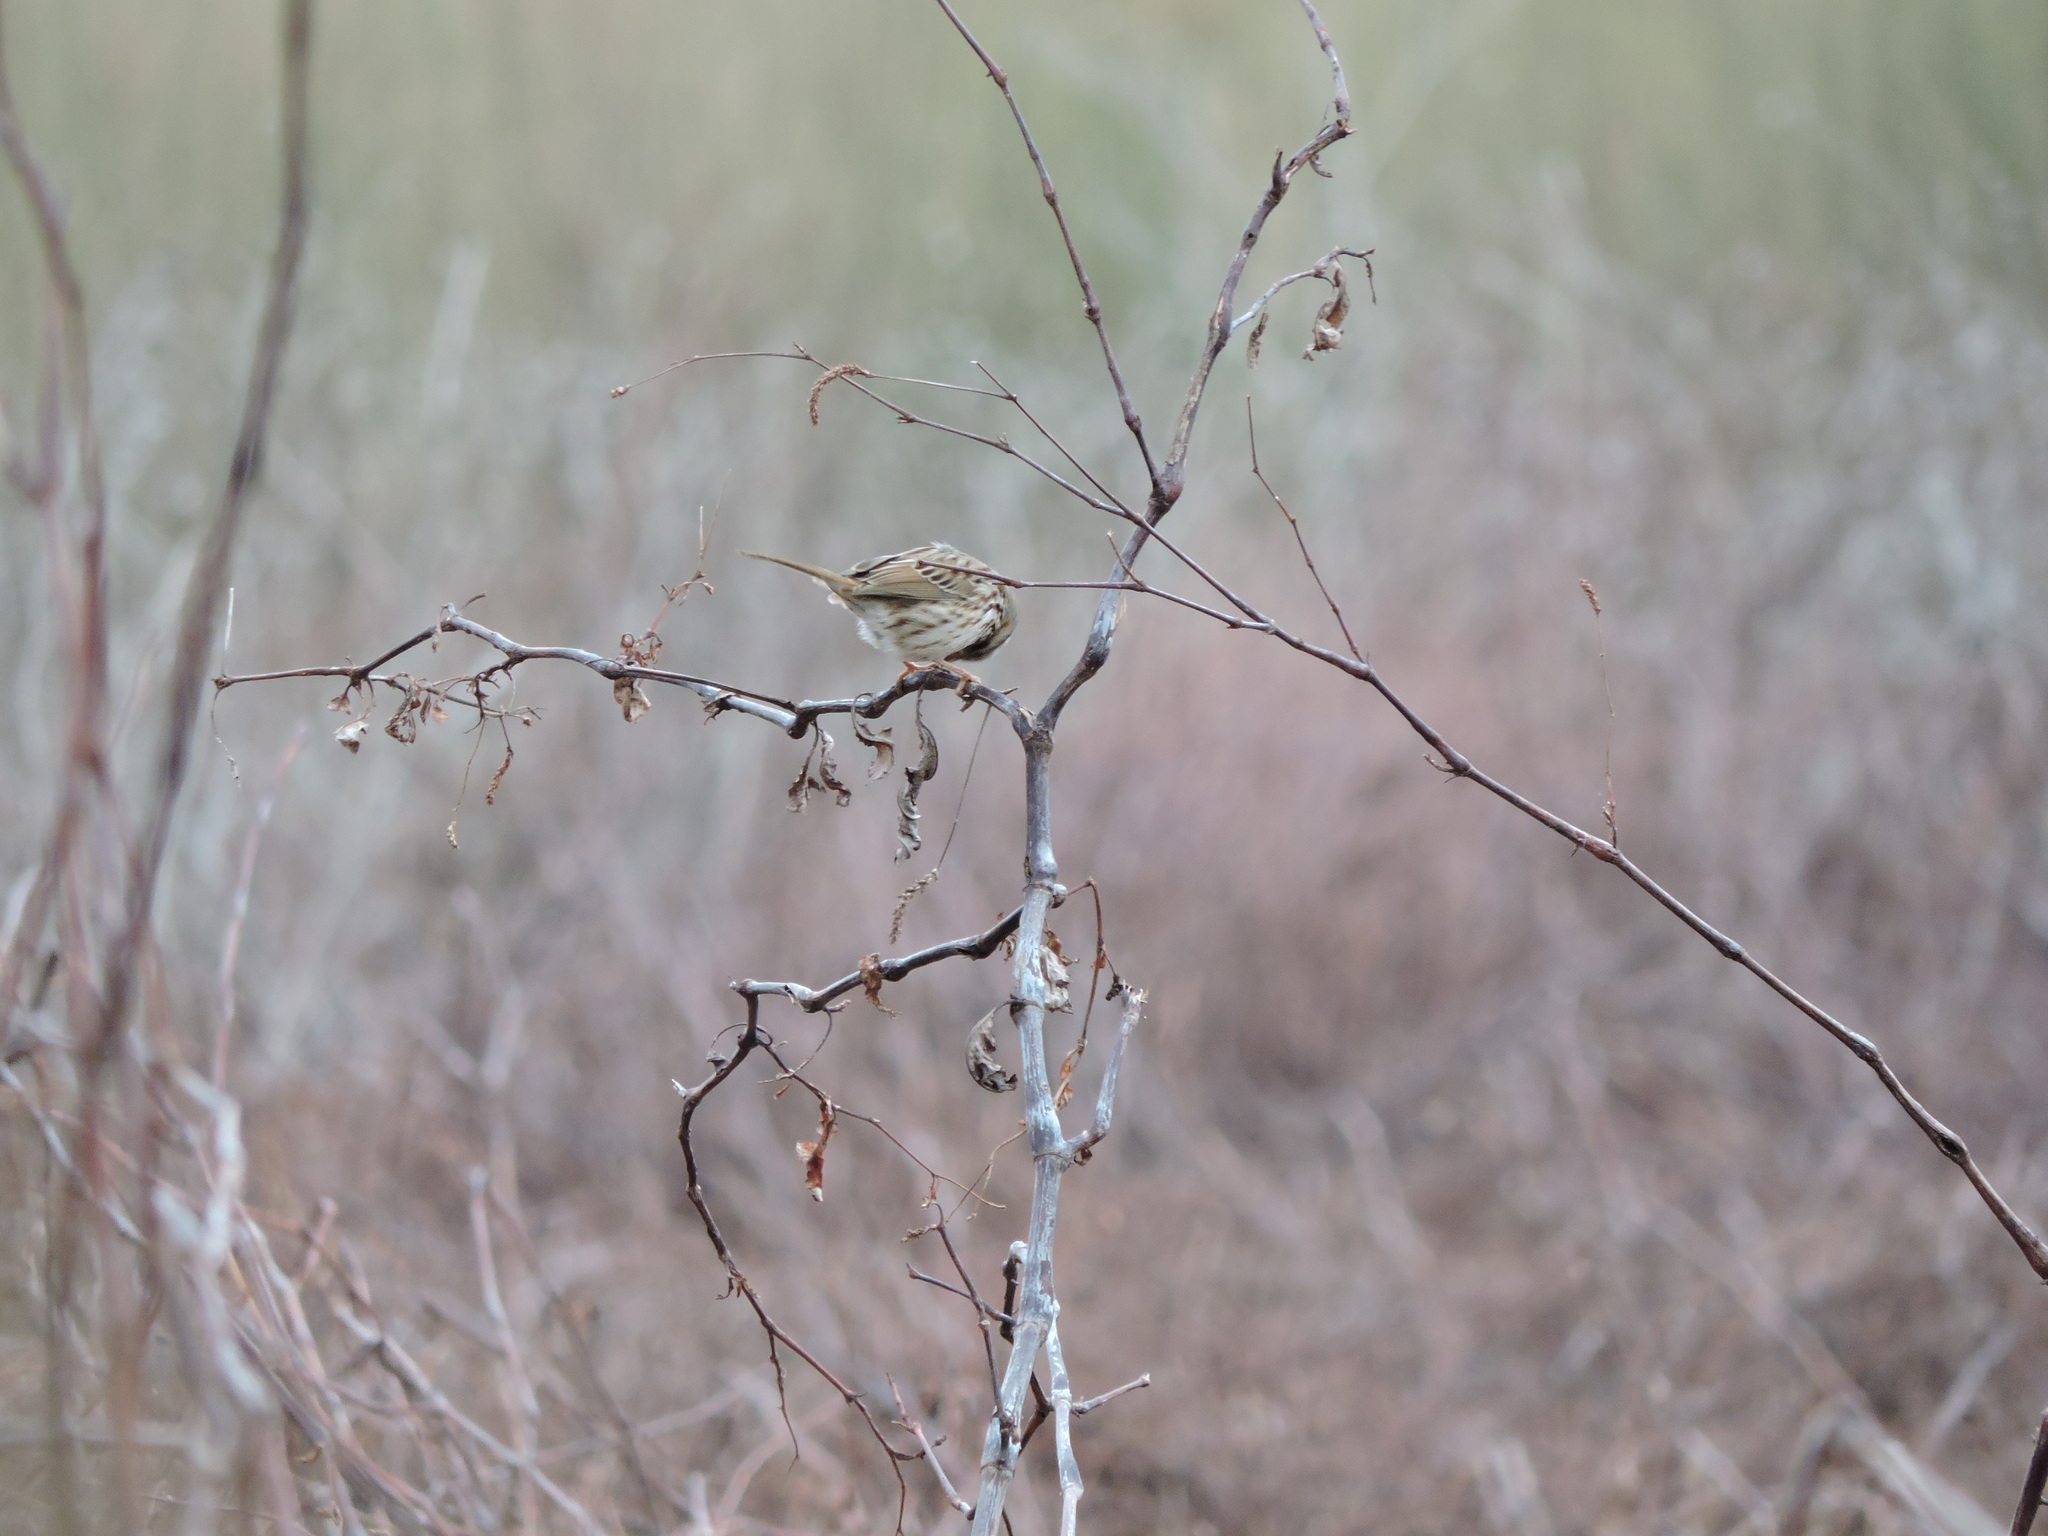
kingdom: Animalia
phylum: Chordata
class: Aves
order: Passeriformes
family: Passerellidae
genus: Melospiza
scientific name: Melospiza melodia
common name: Song sparrow
